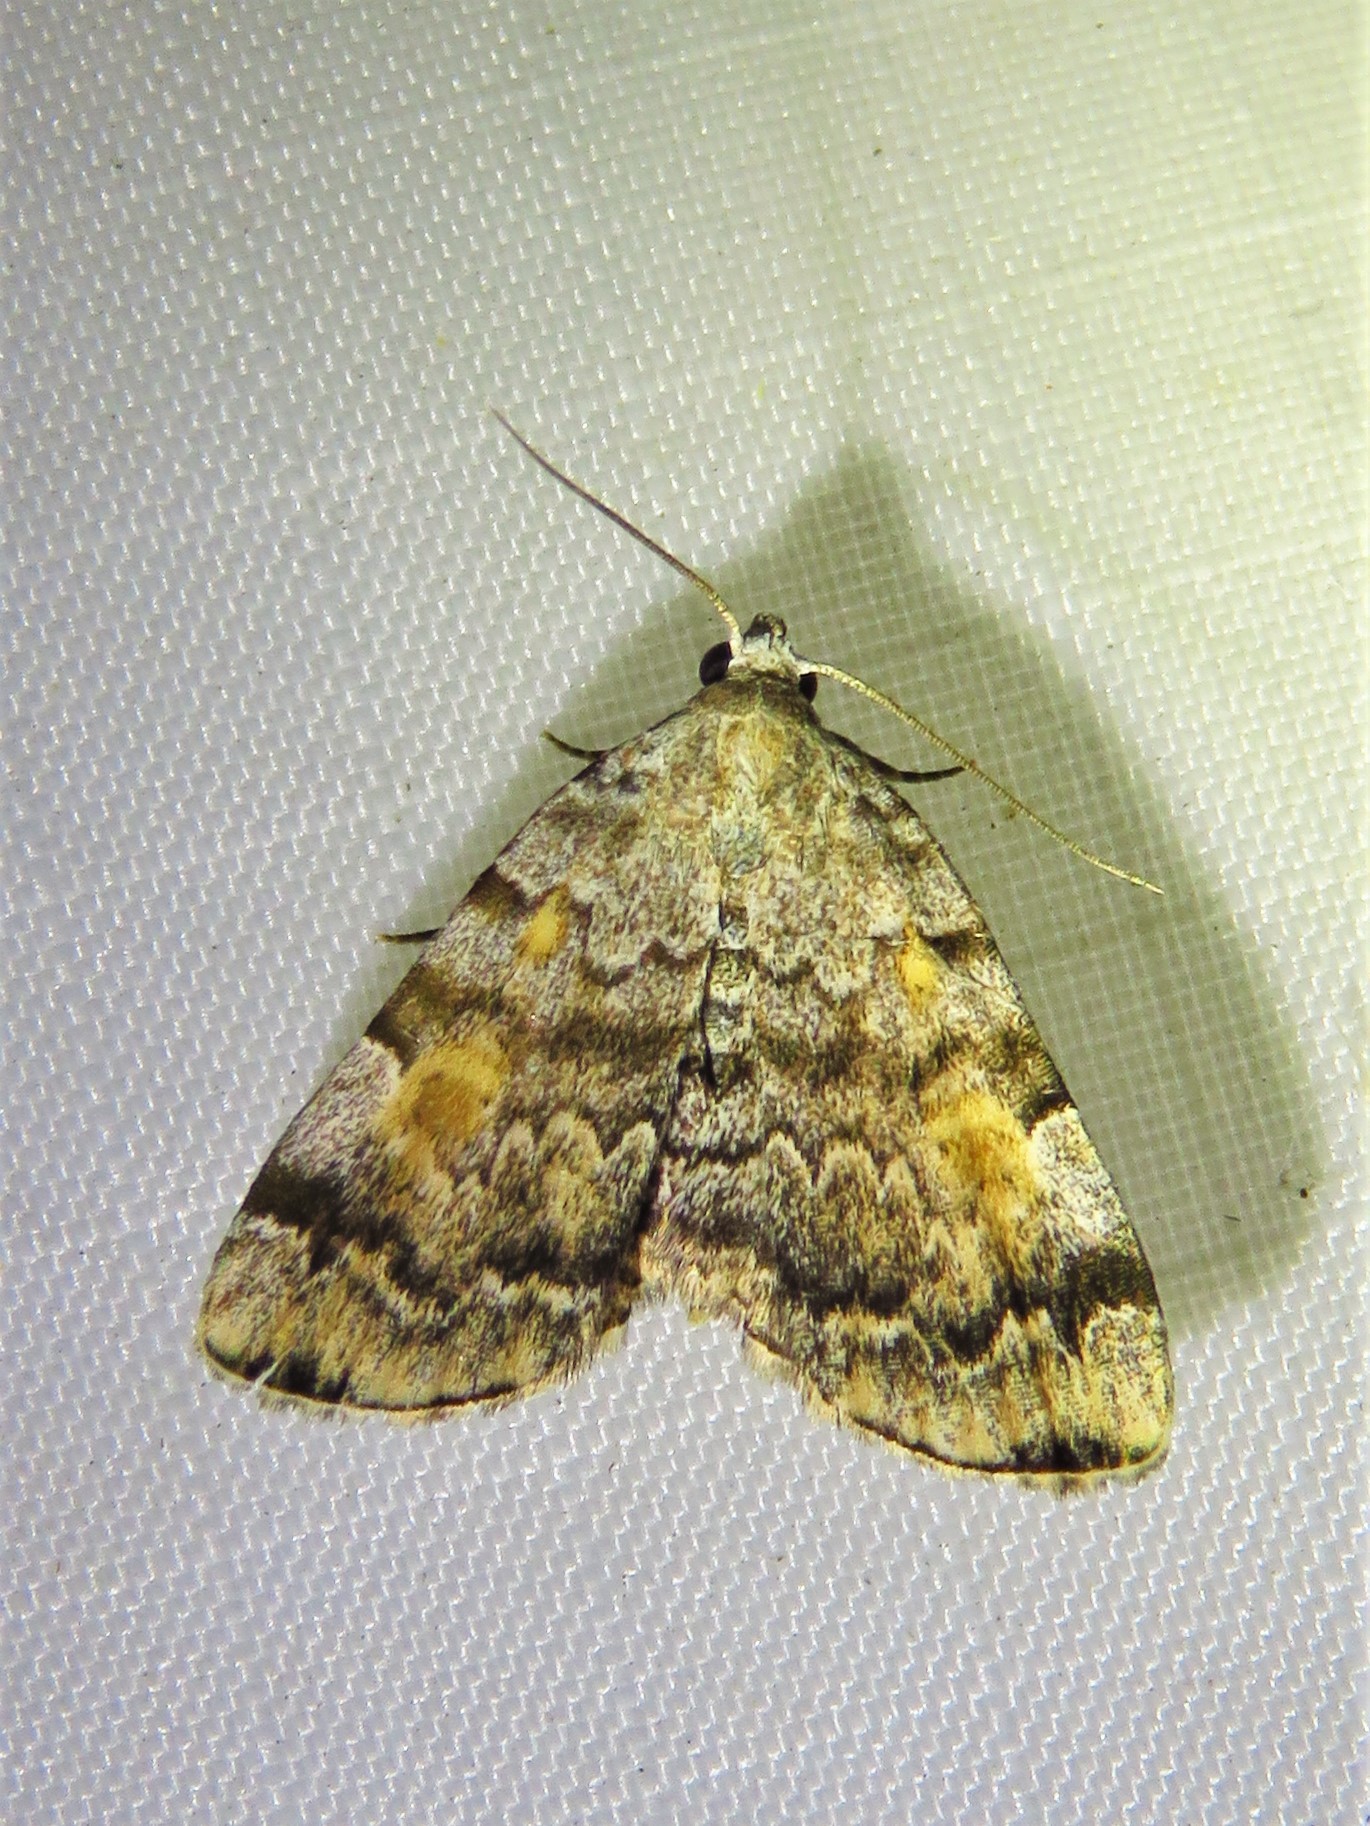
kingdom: Animalia
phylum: Arthropoda
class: Insecta
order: Lepidoptera
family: Erebidae
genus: Idia
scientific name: Idia americalis
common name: American idia moth
